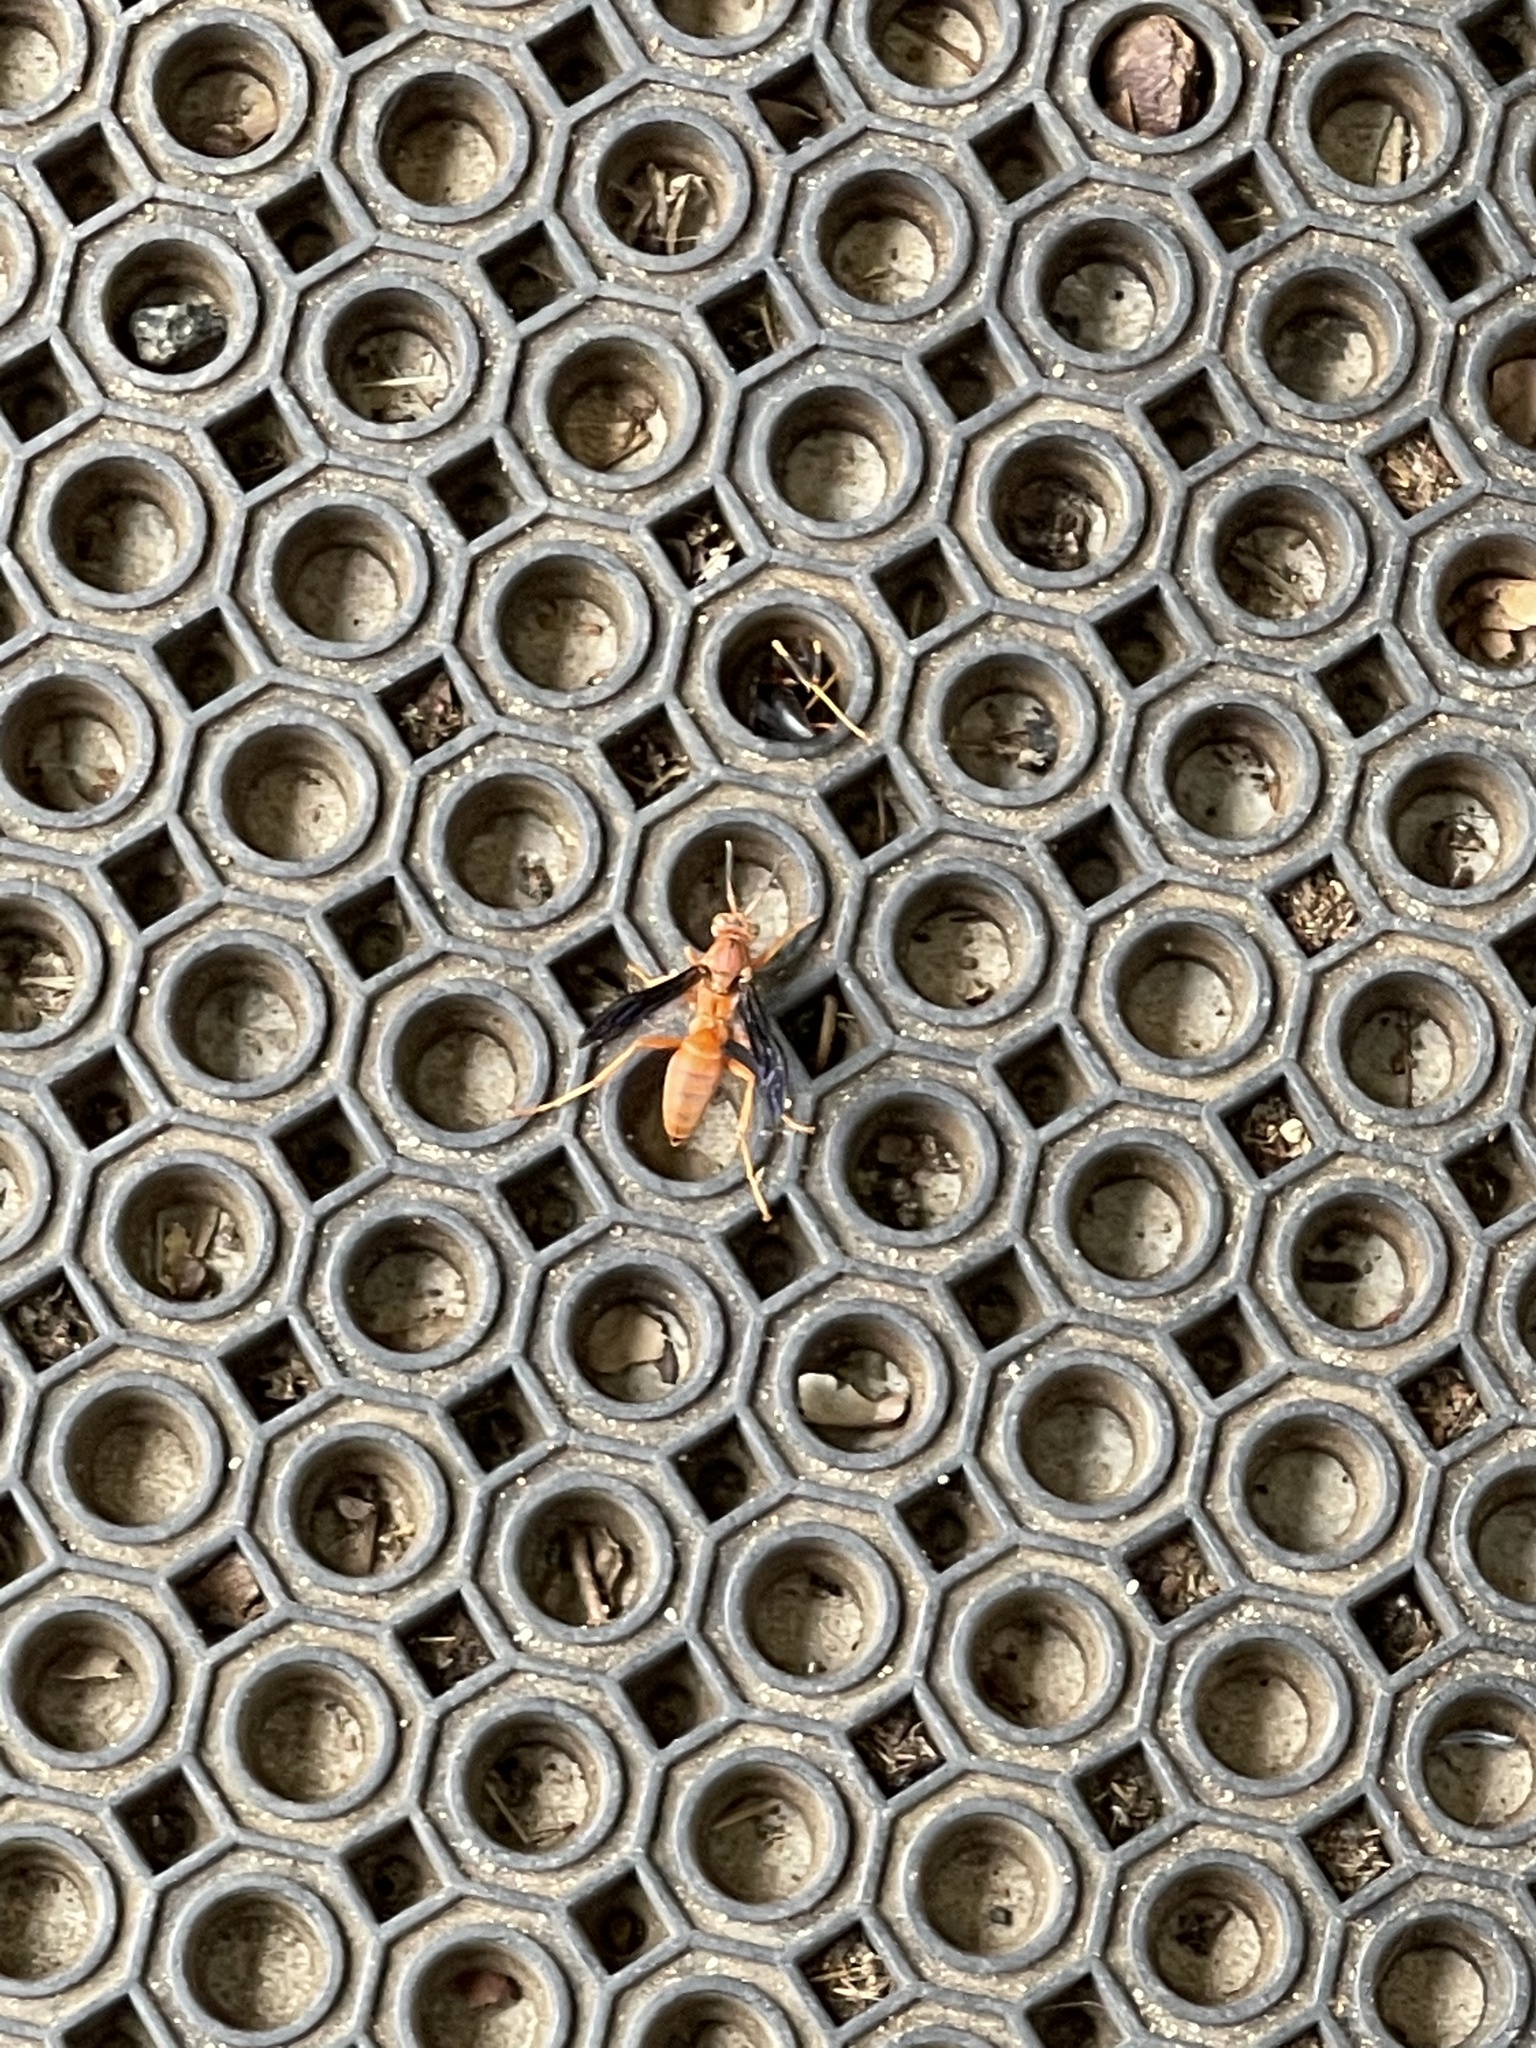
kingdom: Animalia
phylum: Arthropoda
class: Insecta
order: Hymenoptera
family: Vespidae
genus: Fuscopolistes
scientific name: Fuscopolistes
